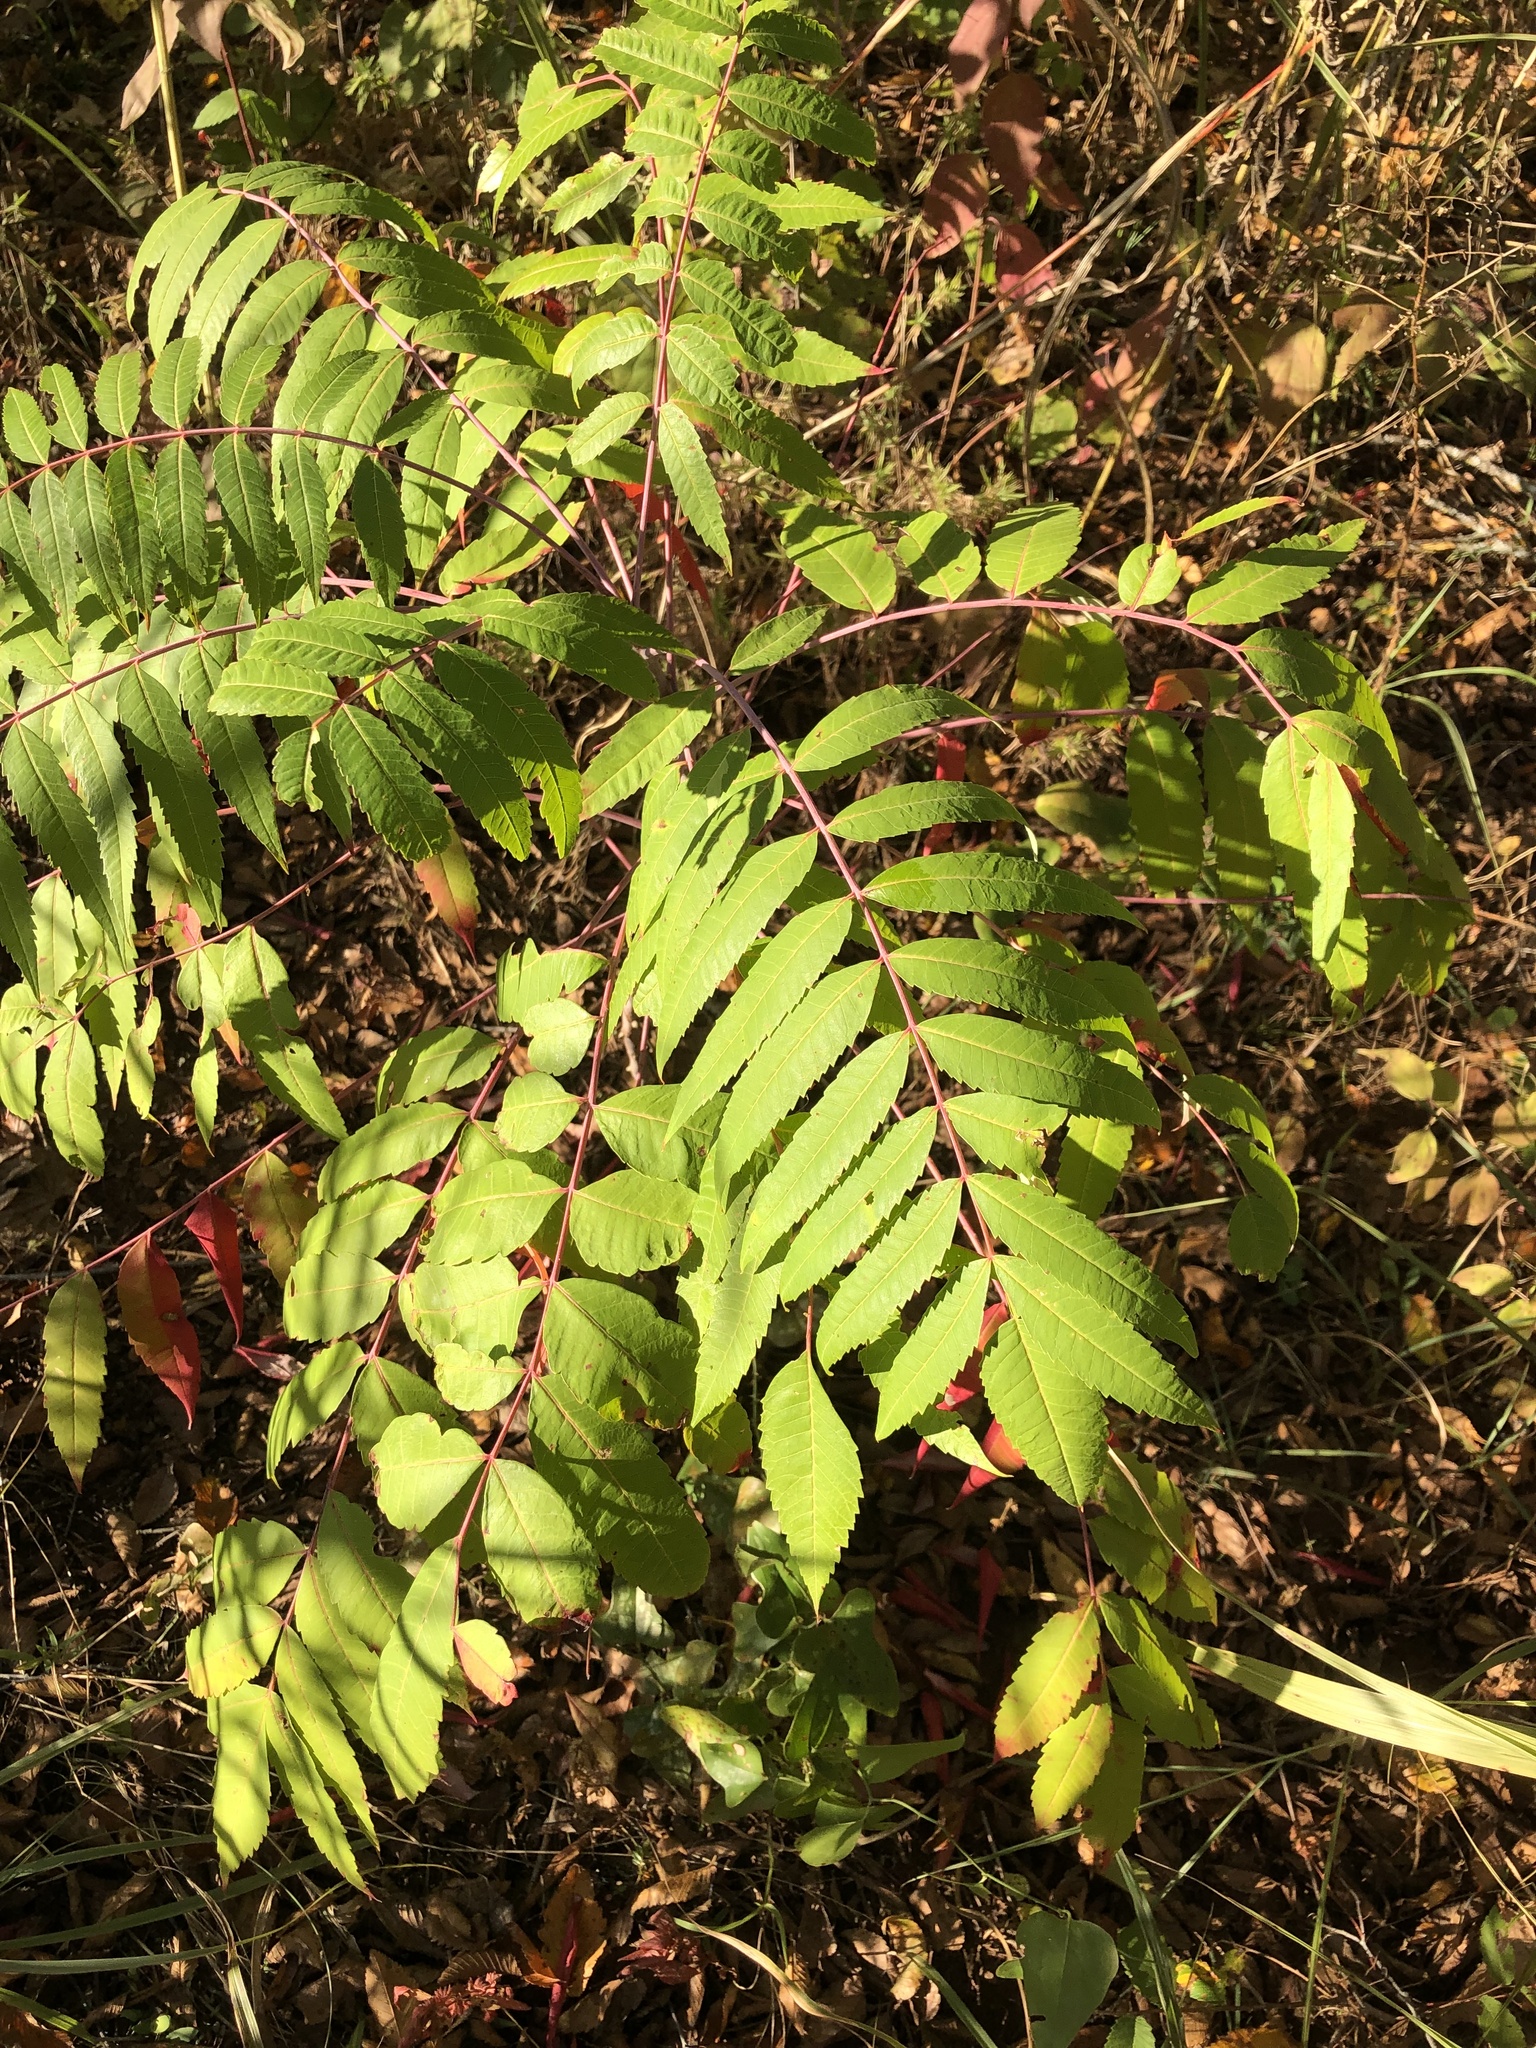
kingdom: Plantae
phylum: Tracheophyta
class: Magnoliopsida
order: Sapindales
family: Anacardiaceae
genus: Rhus
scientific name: Rhus glabra
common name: Scarlet sumac
